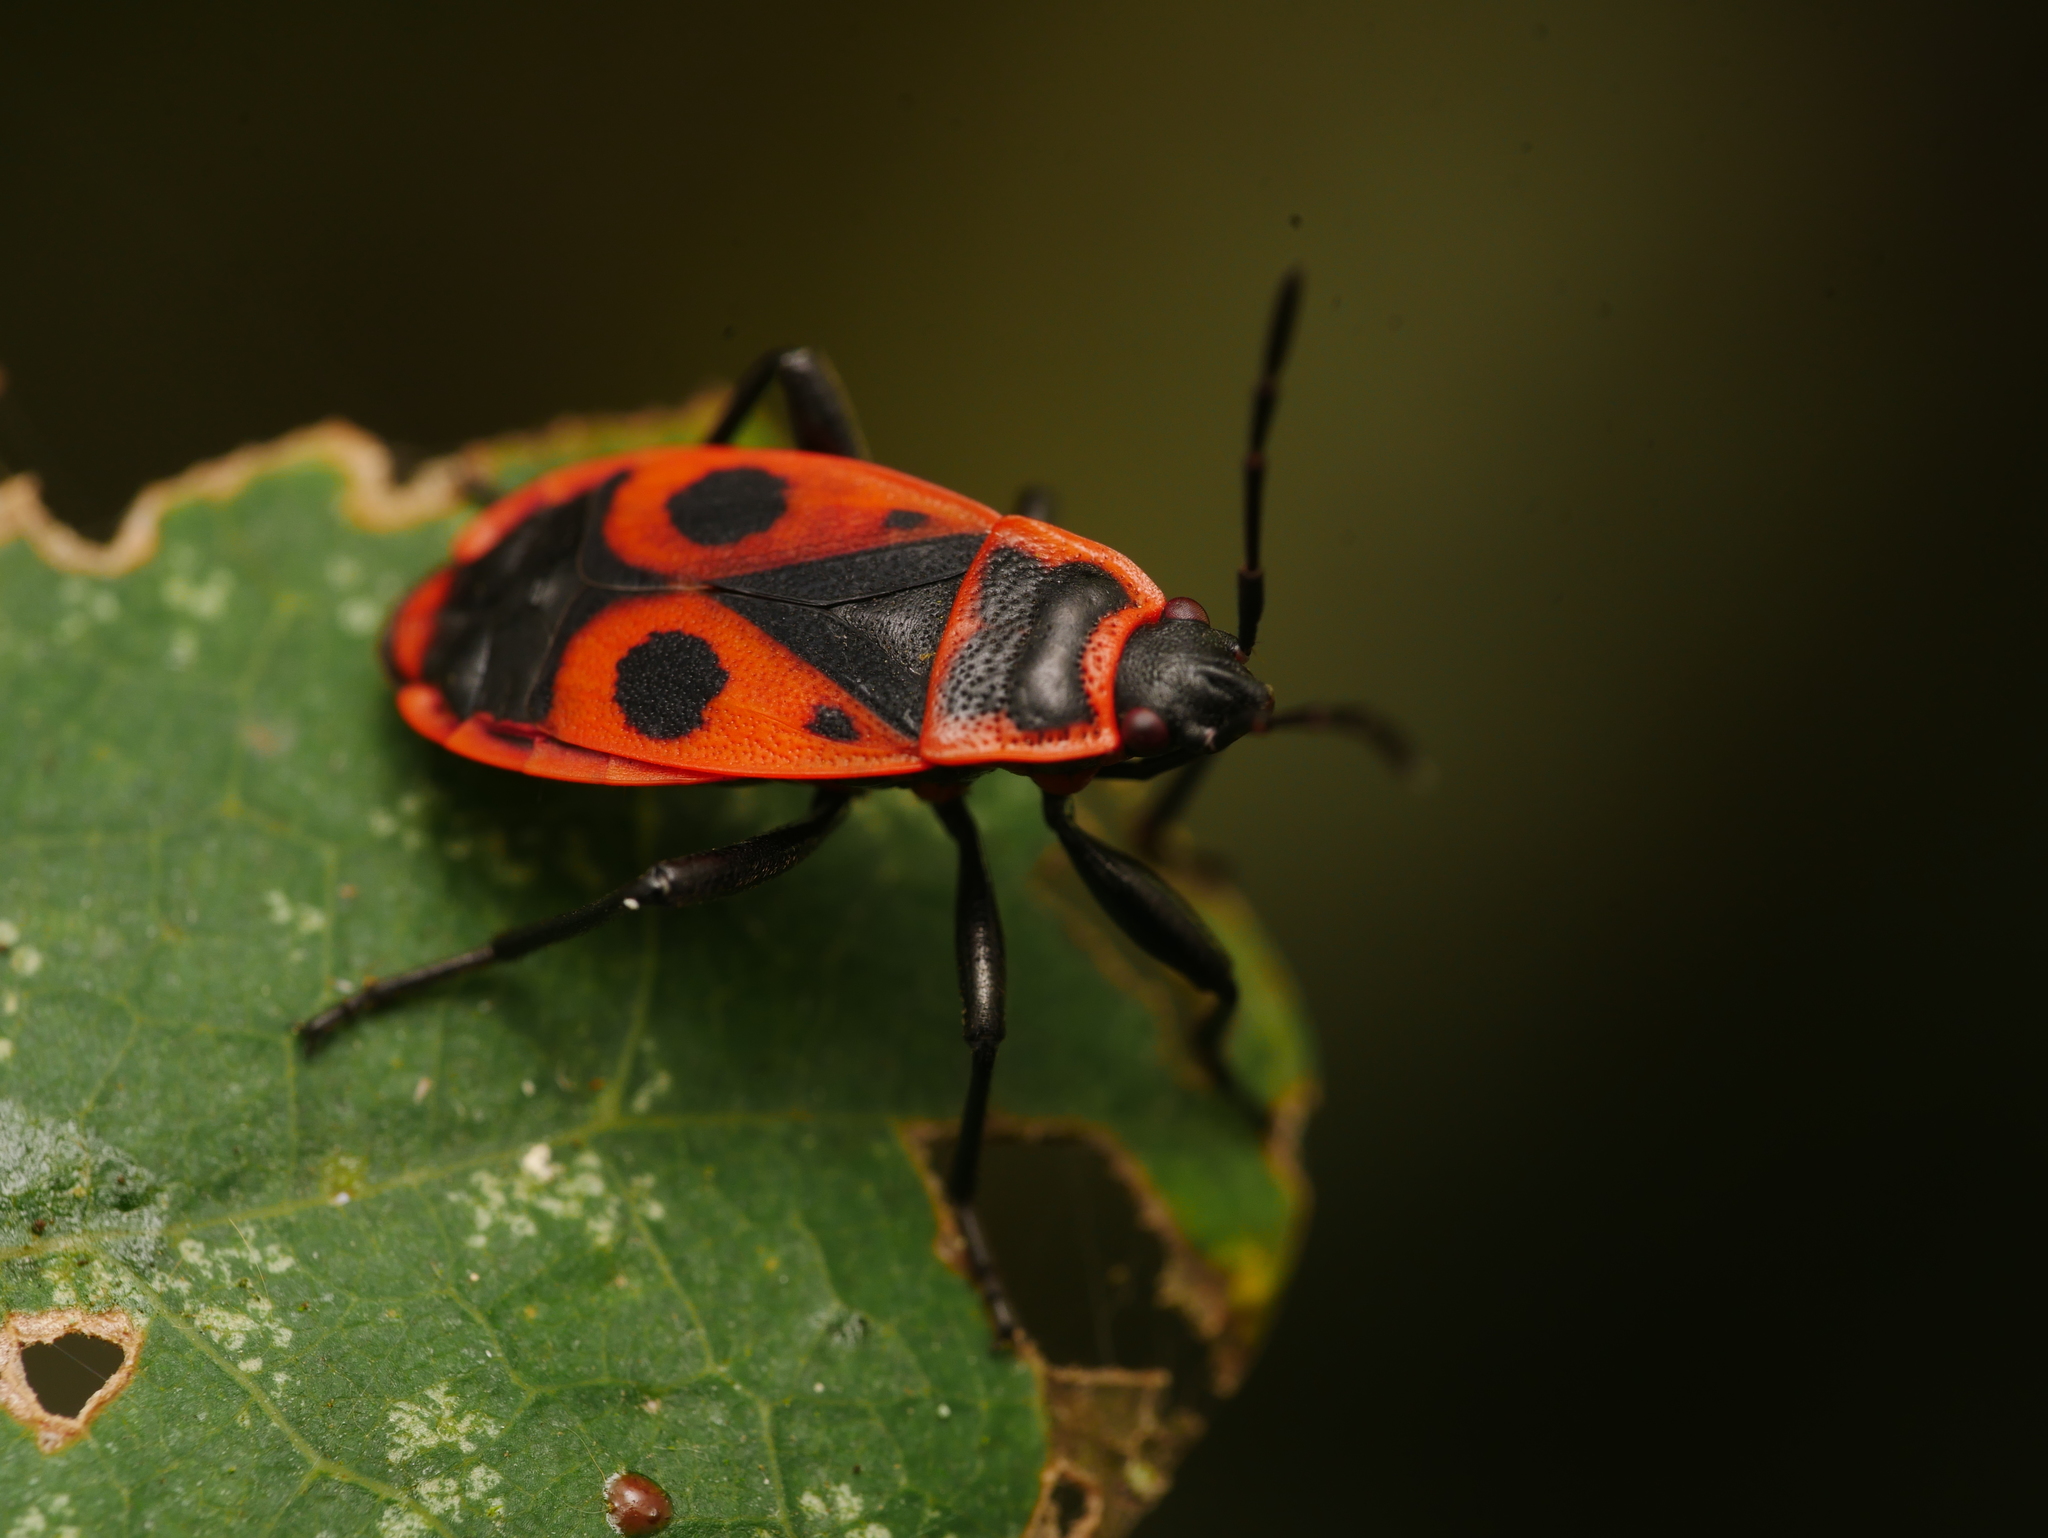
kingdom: Animalia
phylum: Arthropoda
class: Insecta
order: Hemiptera
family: Pyrrhocoridae
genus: Pyrrhocoris
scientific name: Pyrrhocoris apterus
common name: Firebug
